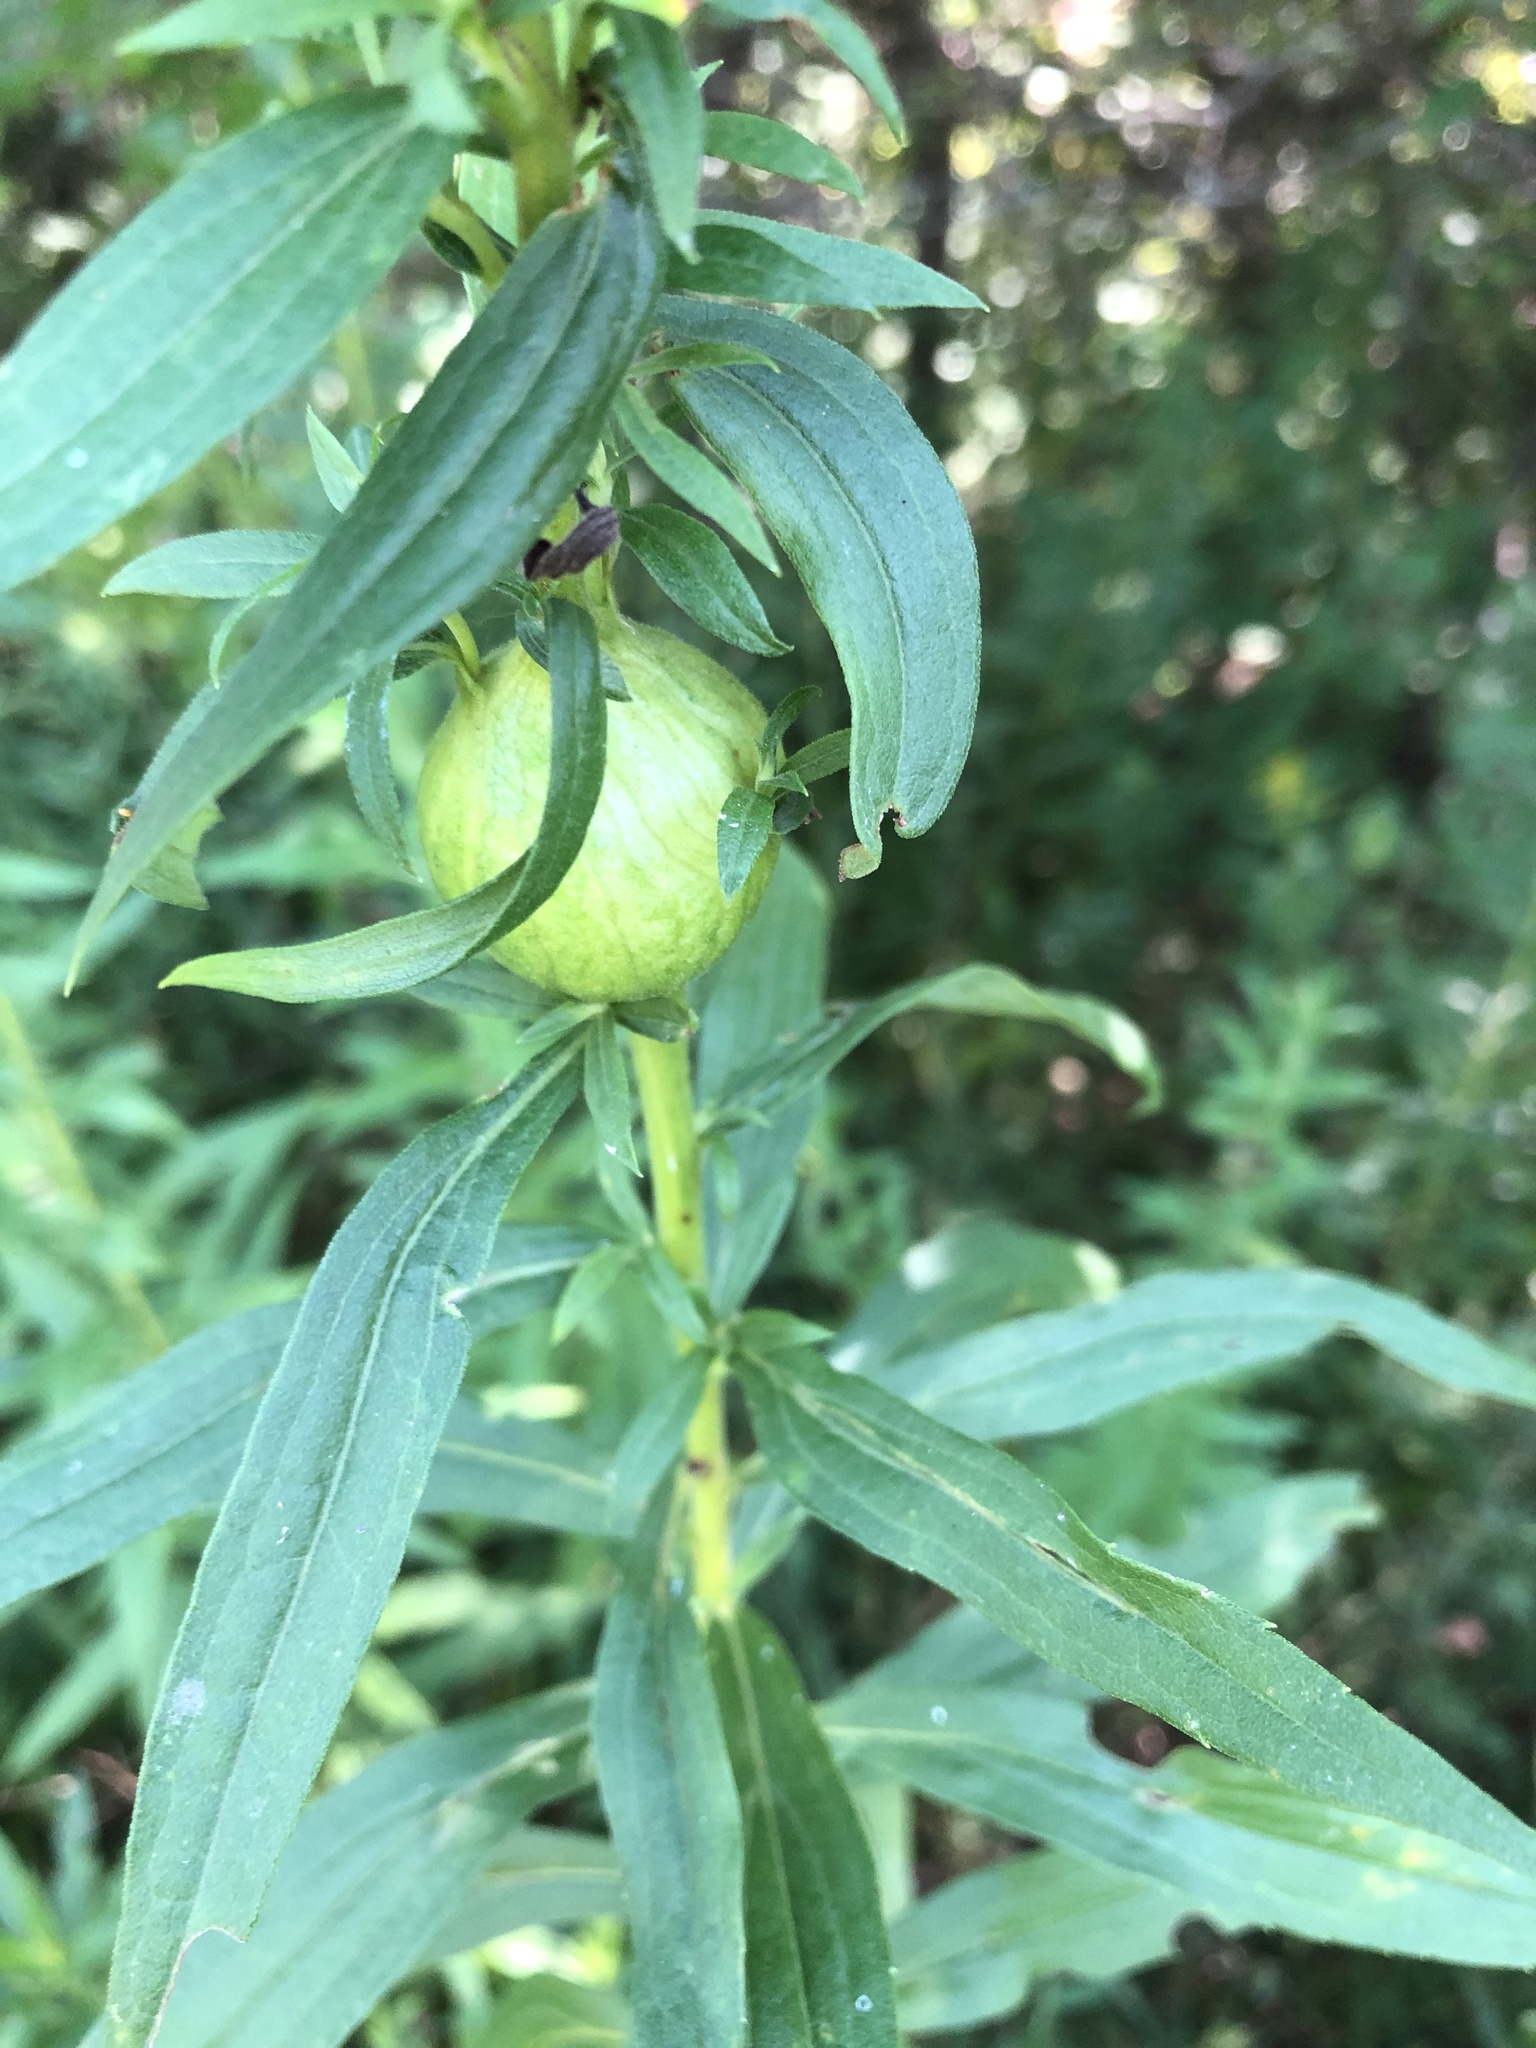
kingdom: Animalia
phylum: Arthropoda
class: Insecta
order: Diptera
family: Tephritidae
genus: Eurosta
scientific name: Eurosta solidaginis
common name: Goldenrod gall fly
